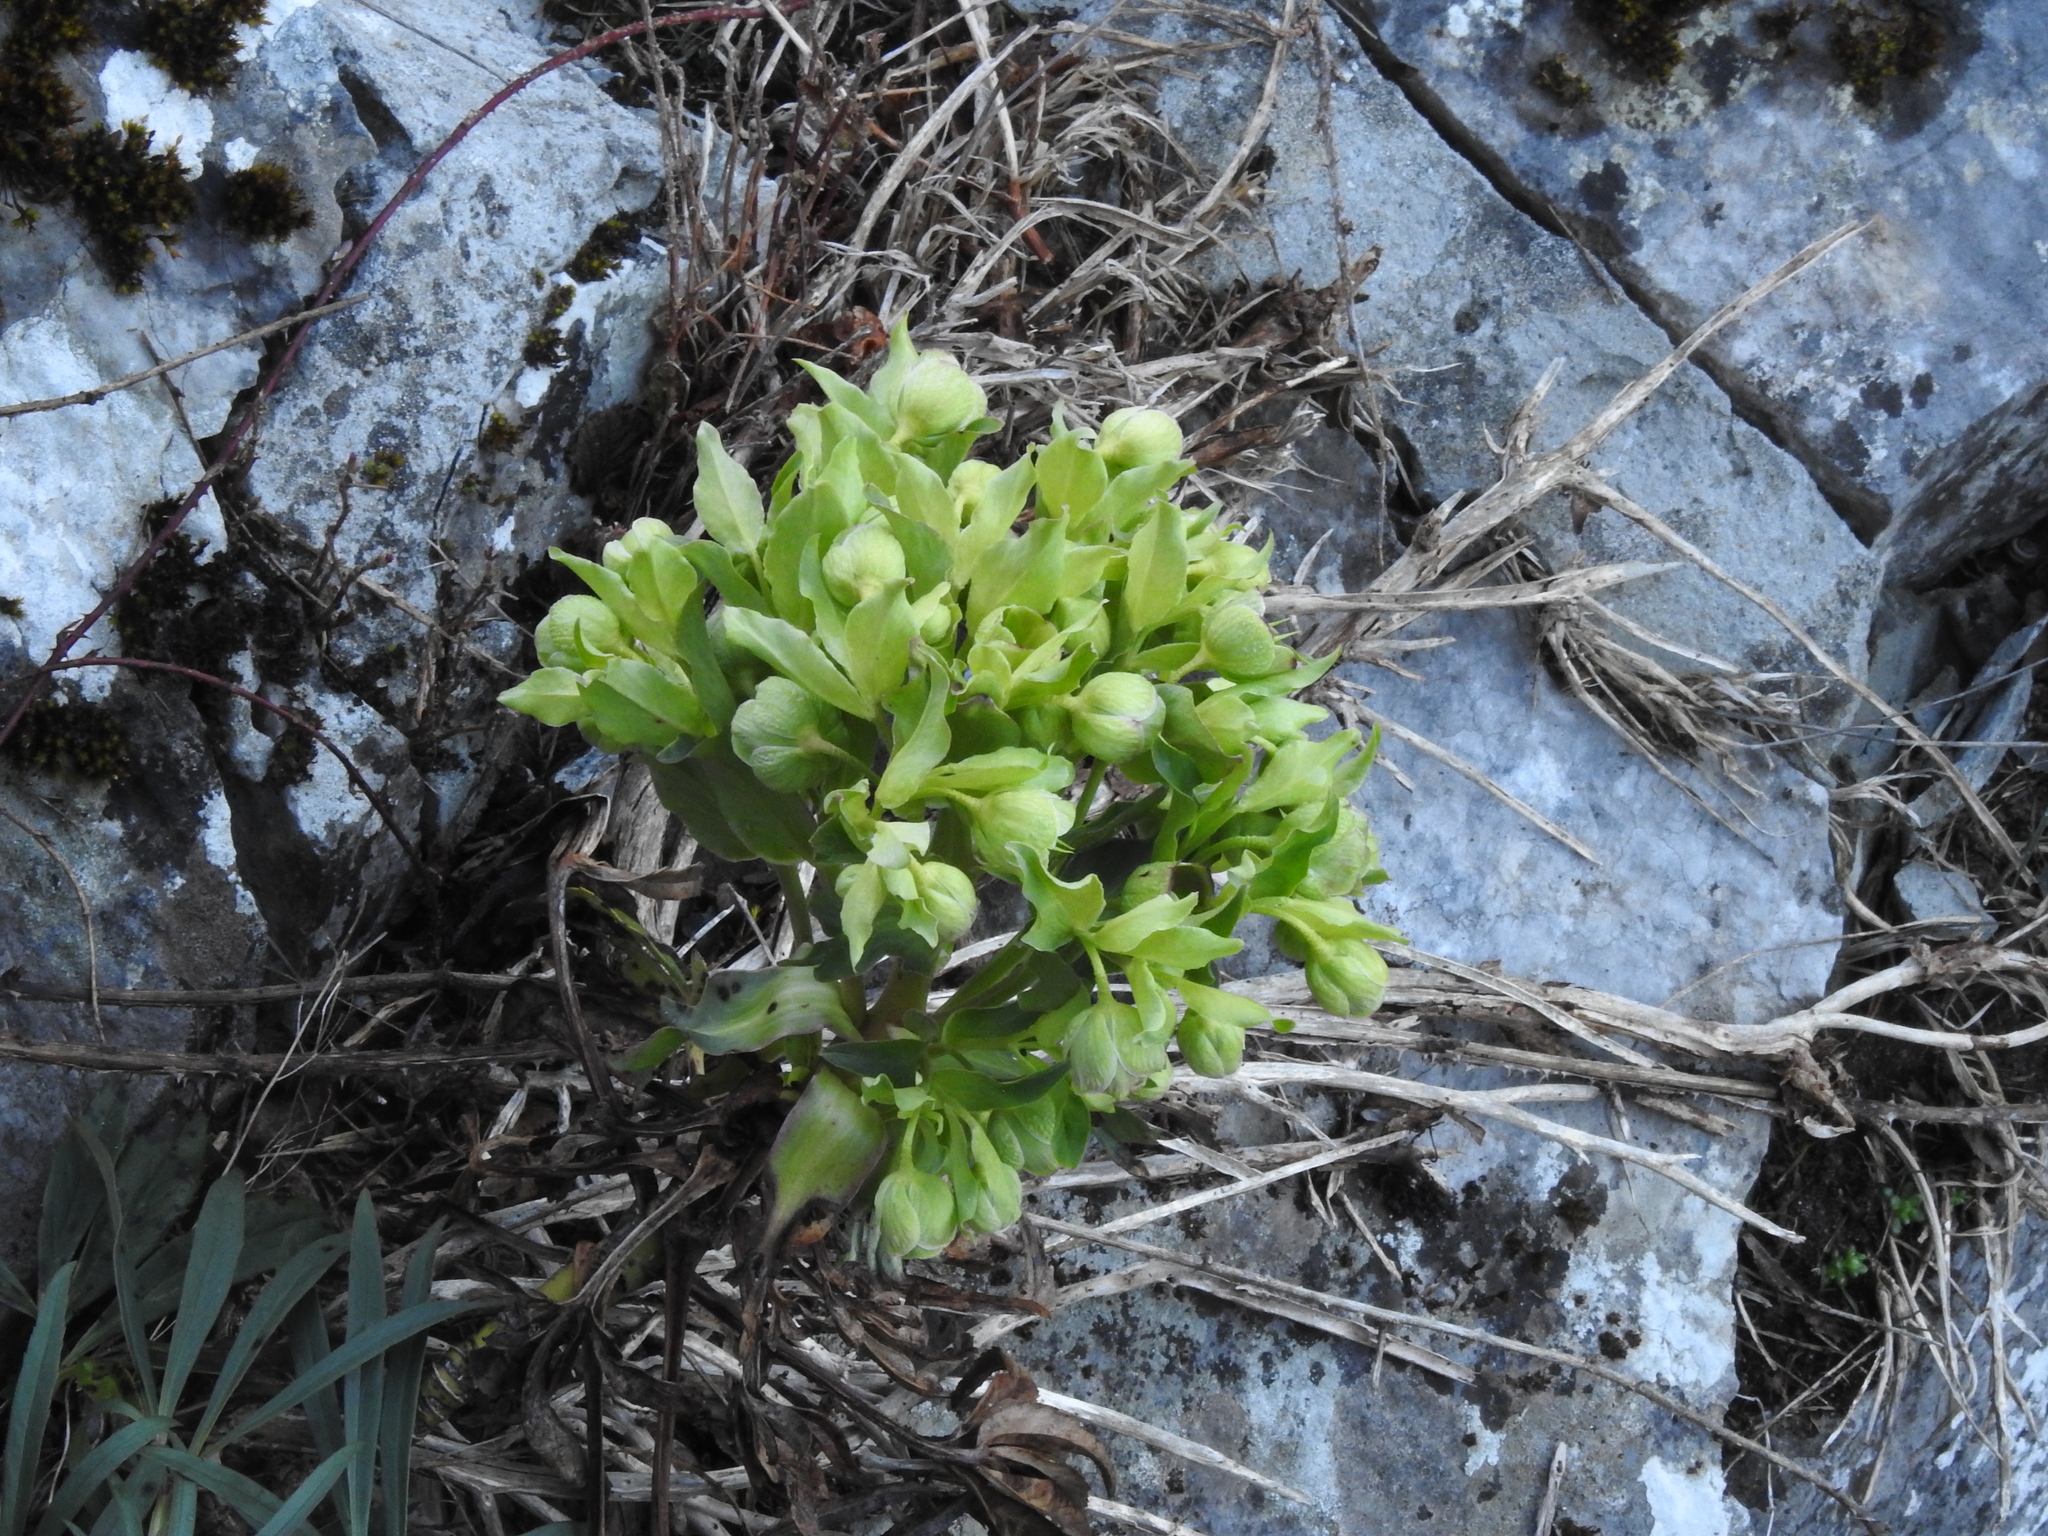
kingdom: Plantae
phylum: Tracheophyta
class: Magnoliopsida
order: Ranunculales
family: Ranunculaceae
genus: Helleborus
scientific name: Helleborus foetidus
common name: Stinking hellebore
